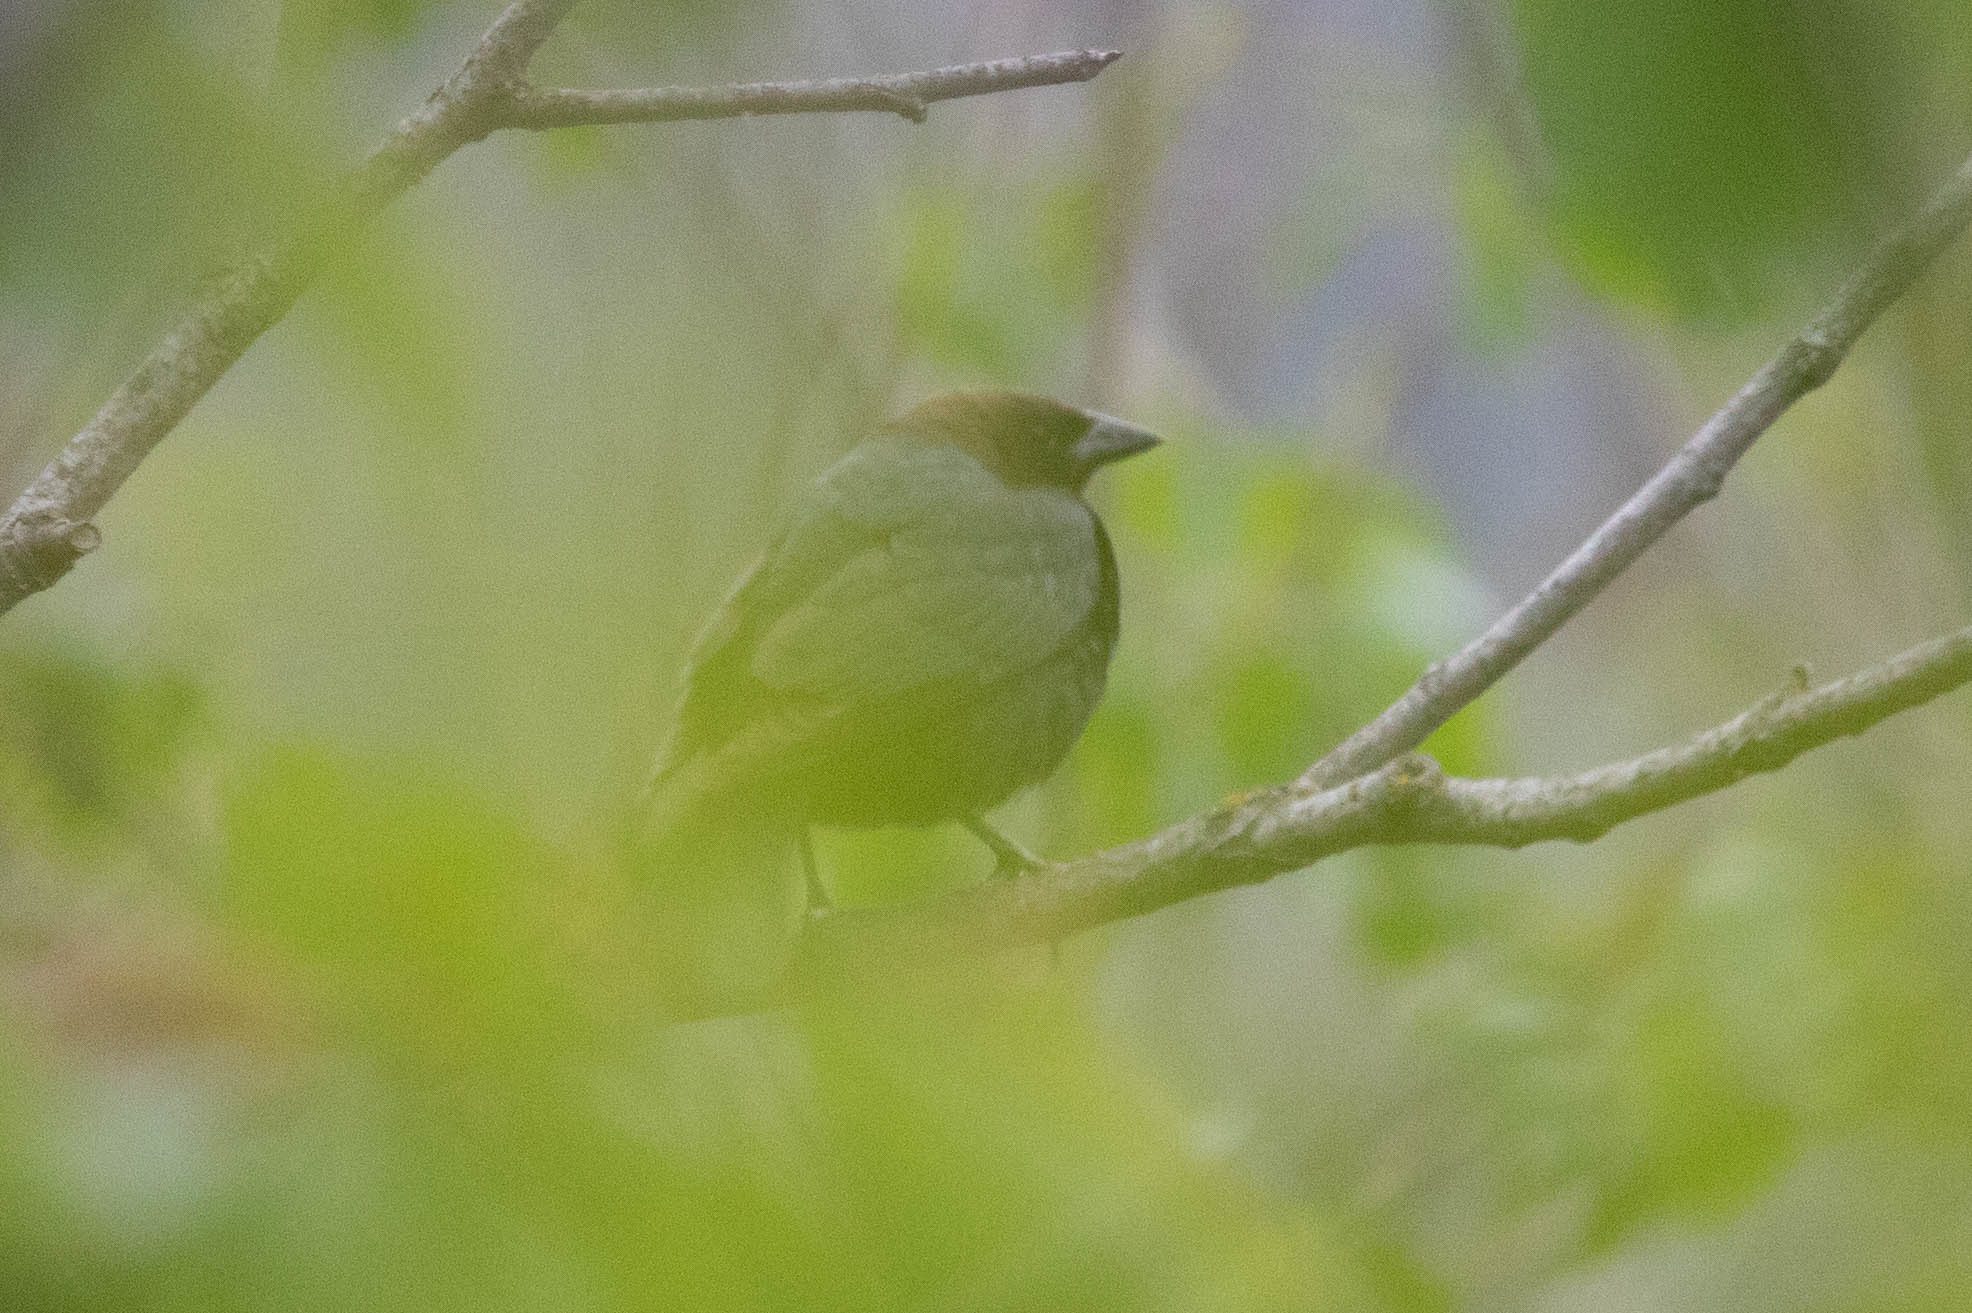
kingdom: Animalia
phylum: Chordata
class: Aves
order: Passeriformes
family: Icteridae
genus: Molothrus
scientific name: Molothrus ater
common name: Brown-headed cowbird
